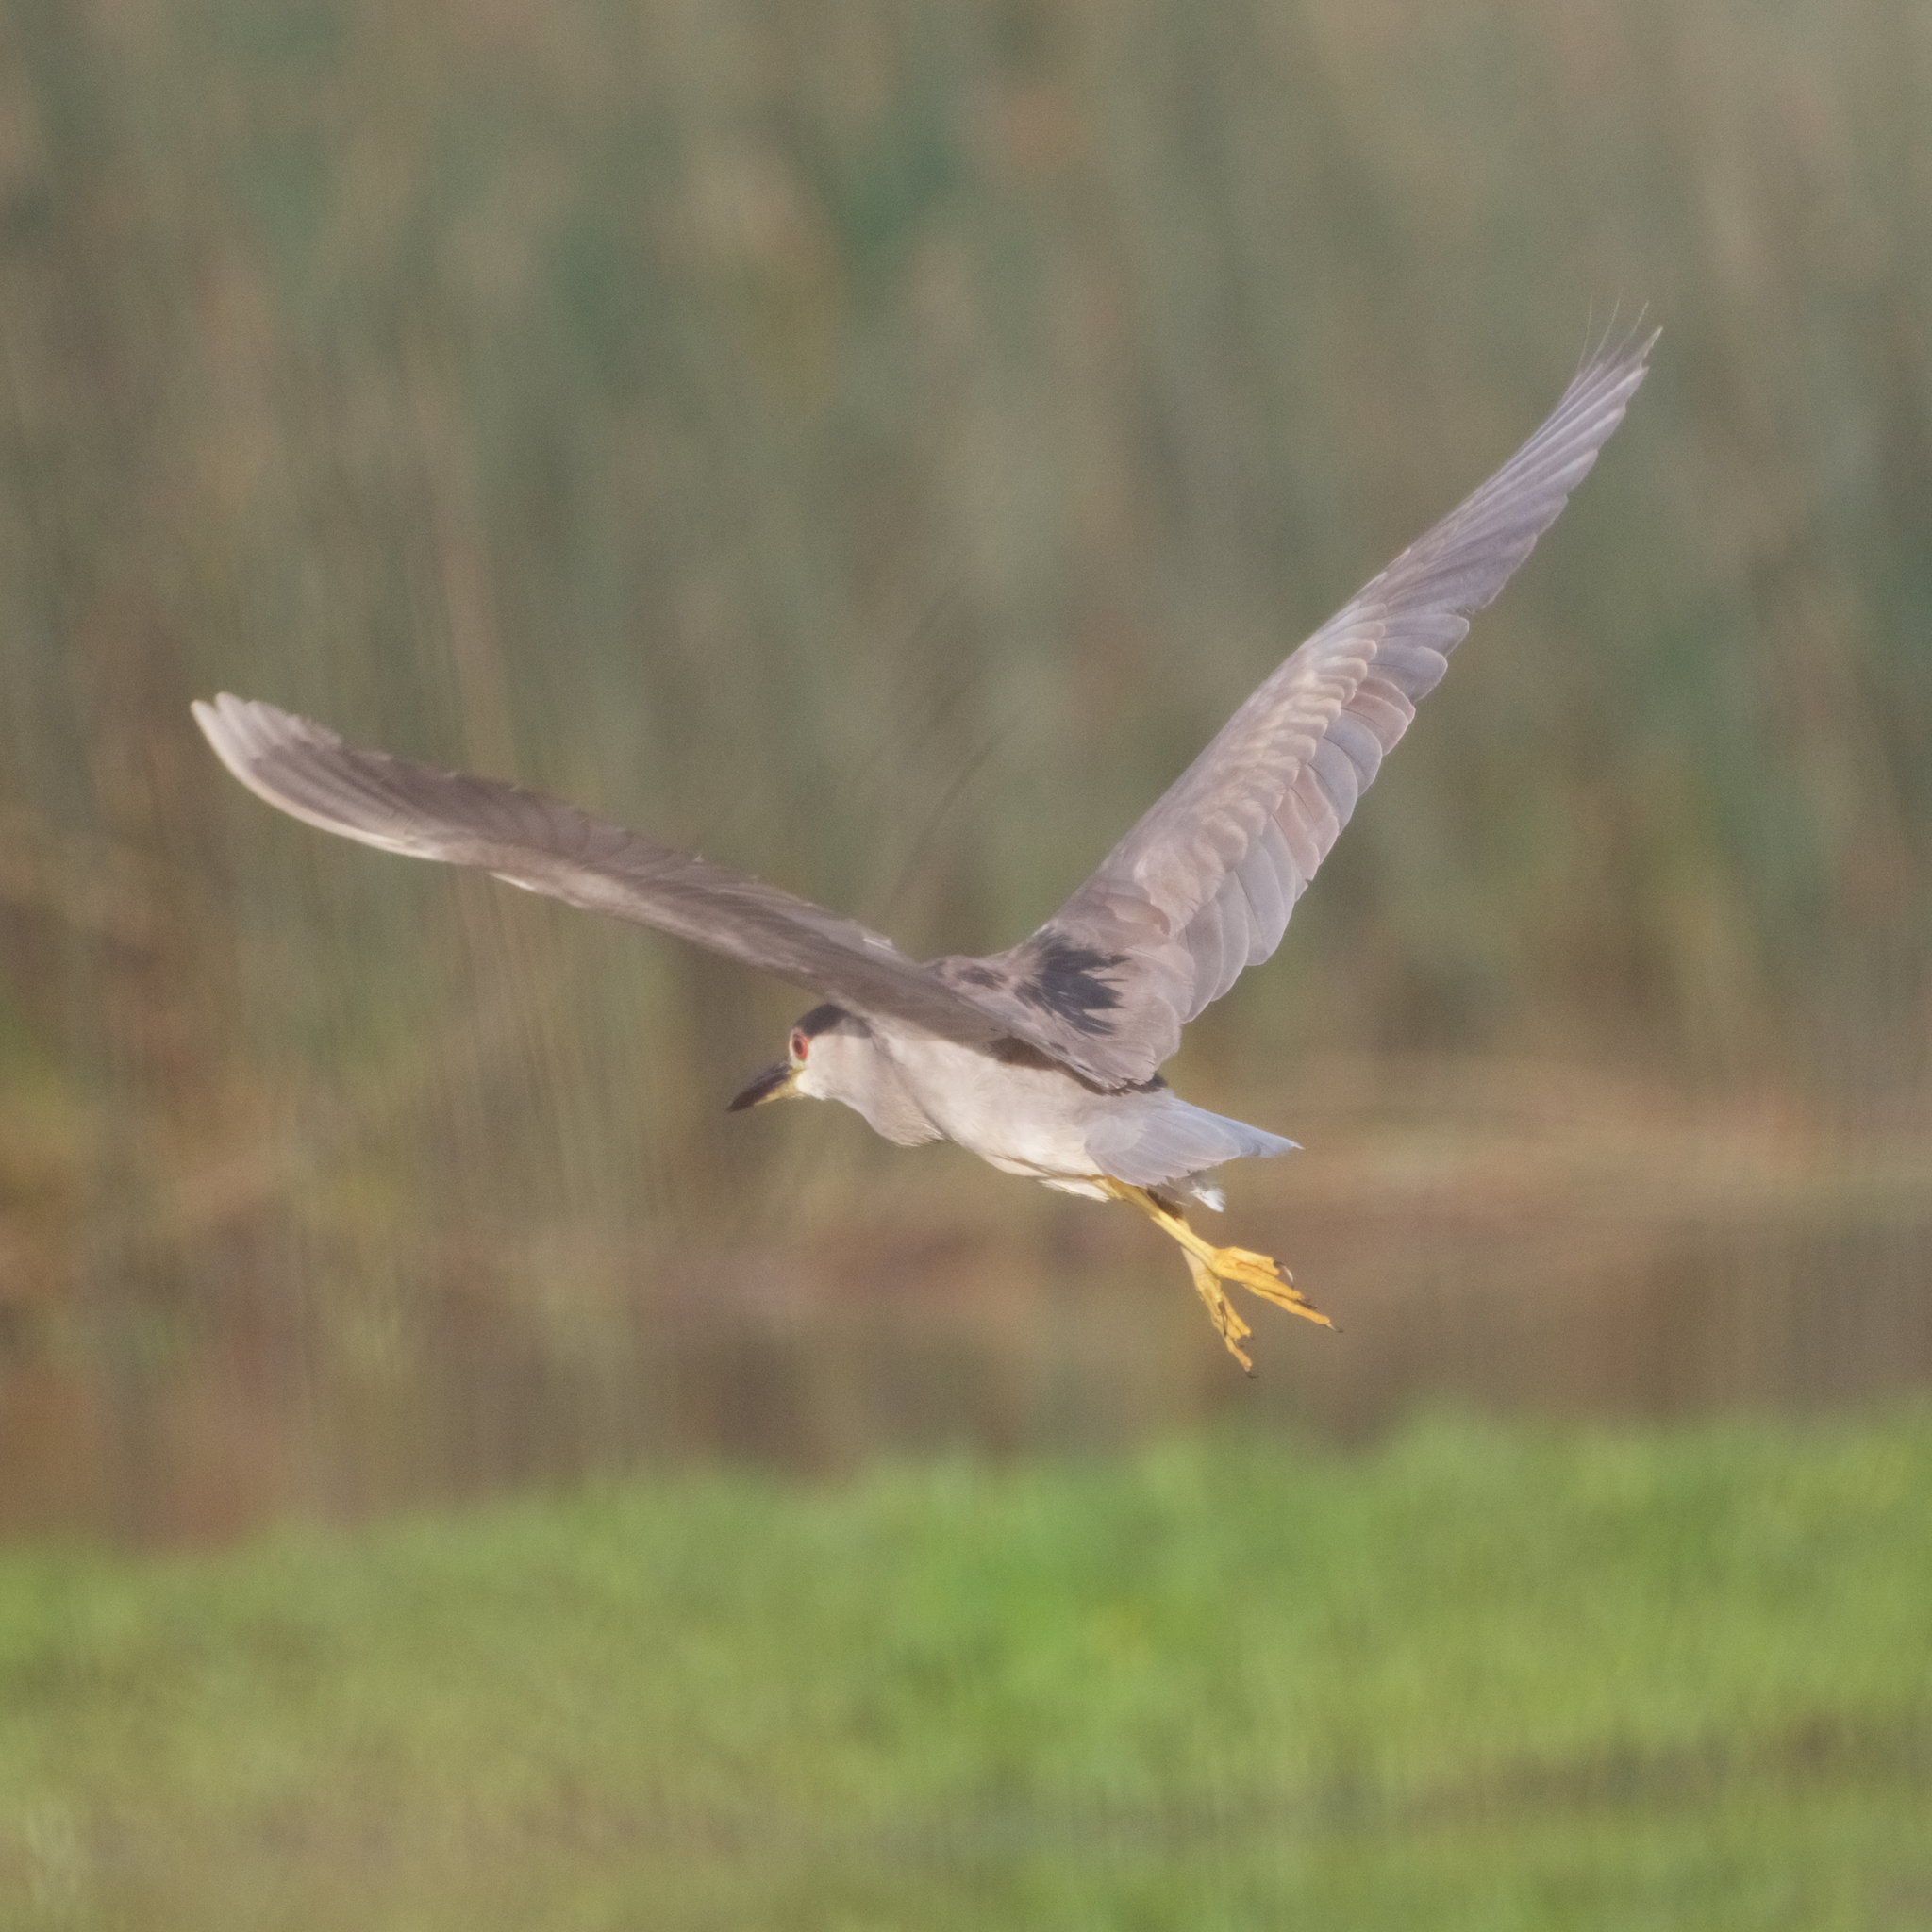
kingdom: Animalia
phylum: Chordata
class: Aves
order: Pelecaniformes
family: Ardeidae
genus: Nycticorax
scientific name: Nycticorax nycticorax
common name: Black-crowned night heron
